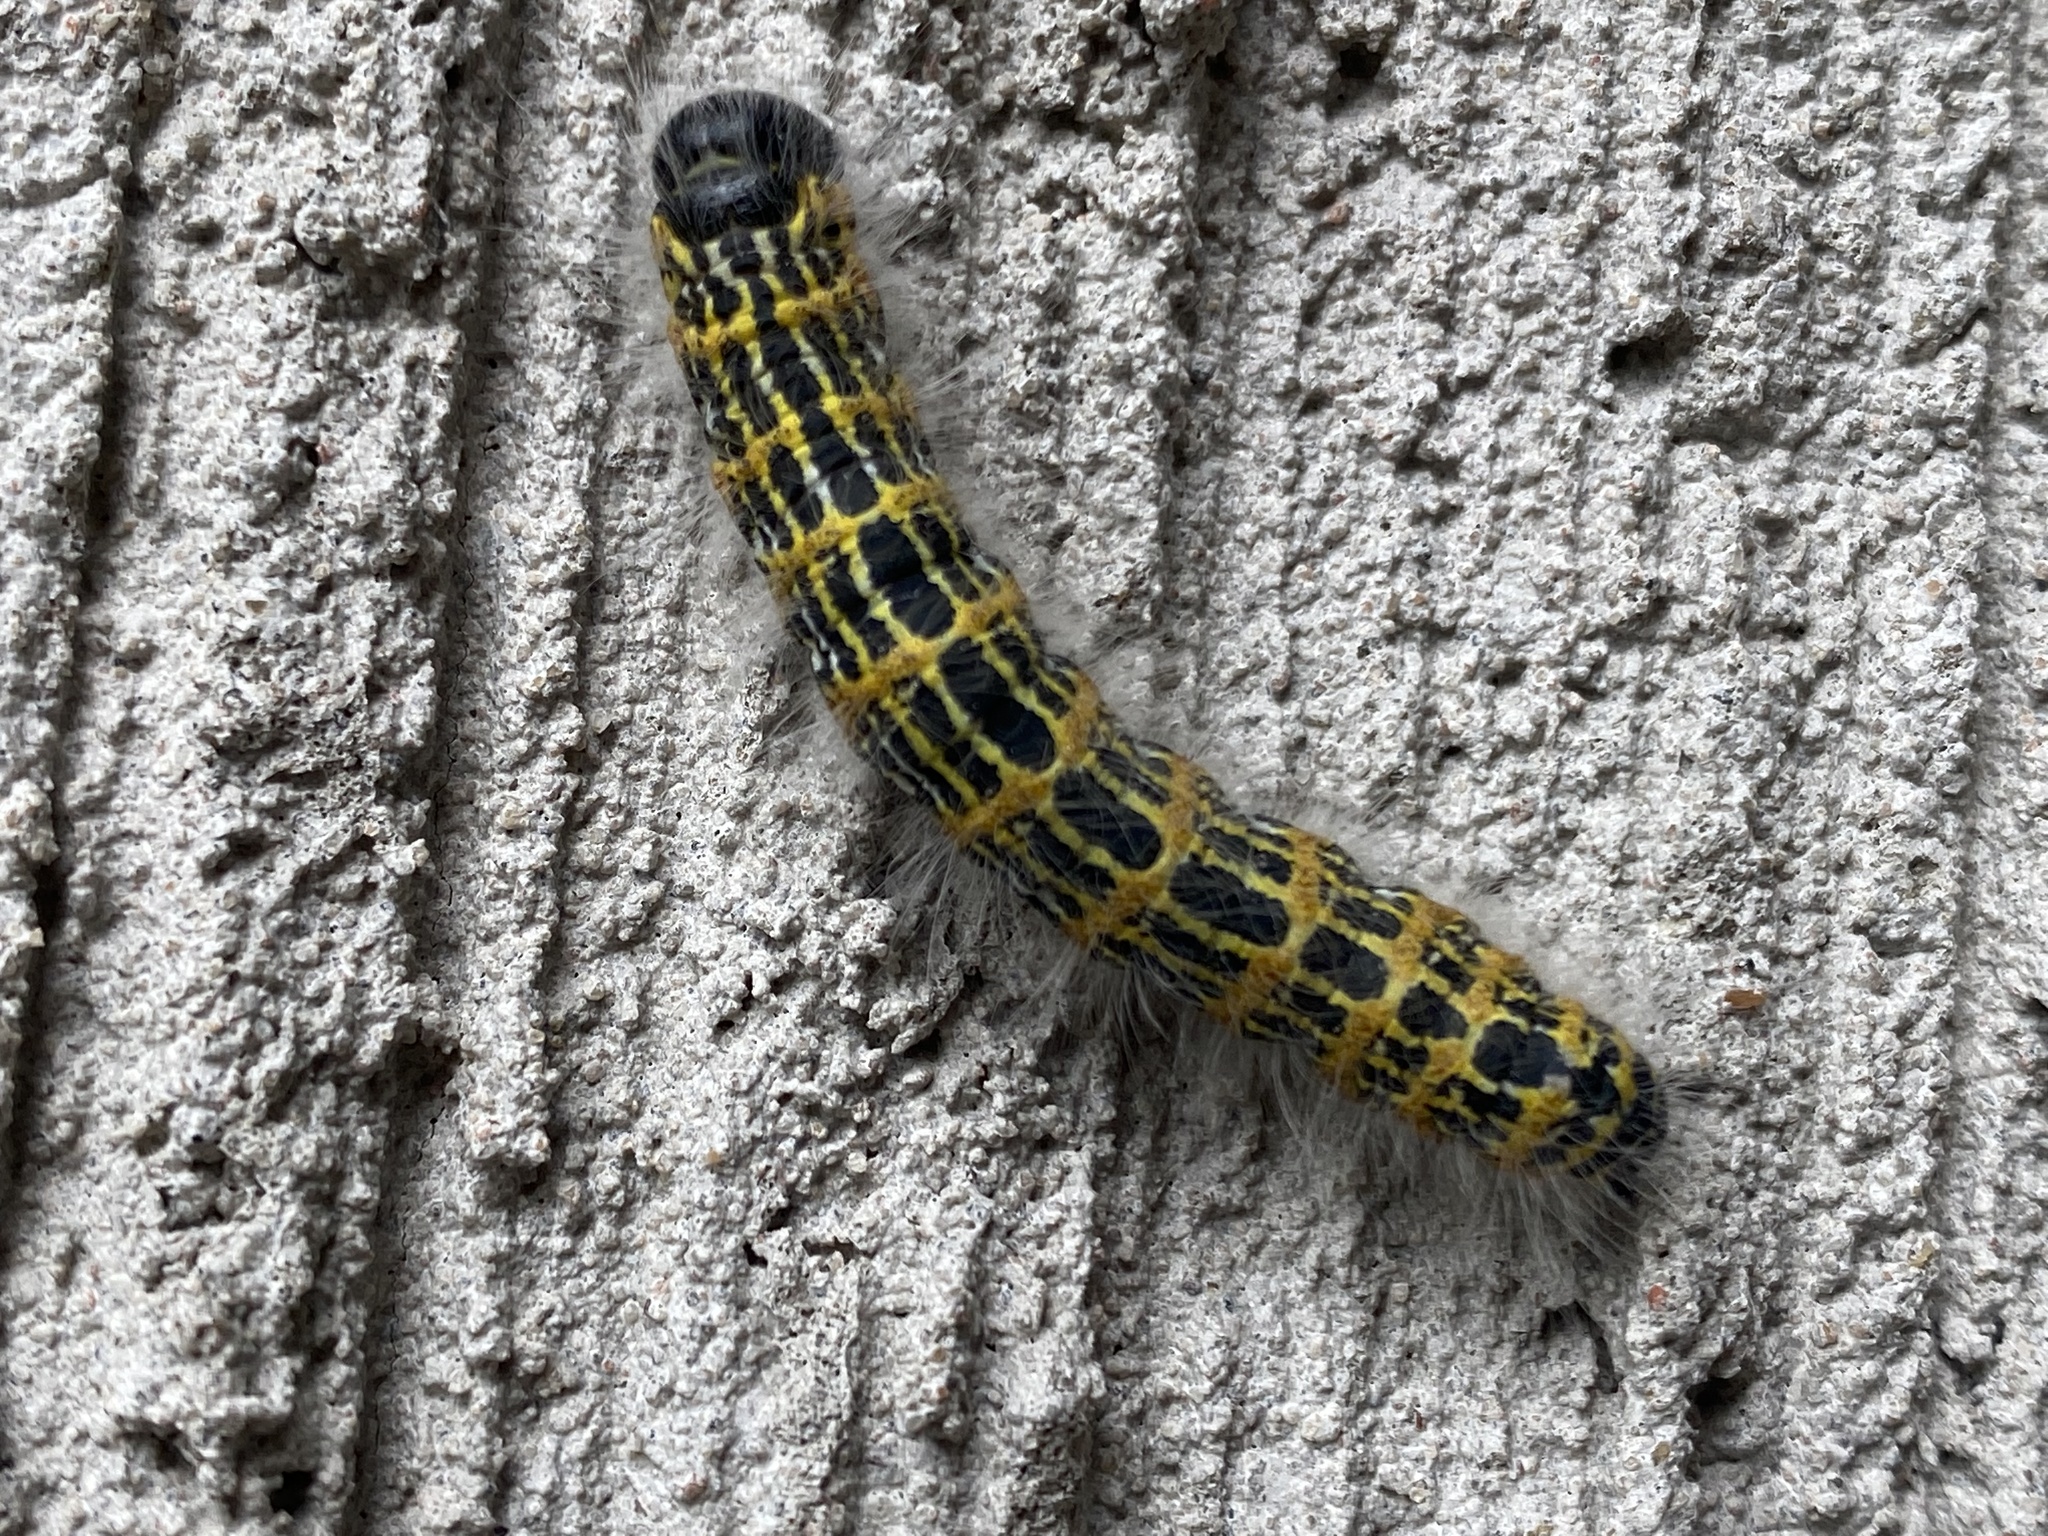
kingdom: Animalia
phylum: Arthropoda
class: Insecta
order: Lepidoptera
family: Notodontidae
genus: Phalera
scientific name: Phalera bucephala
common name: Buff-tip
